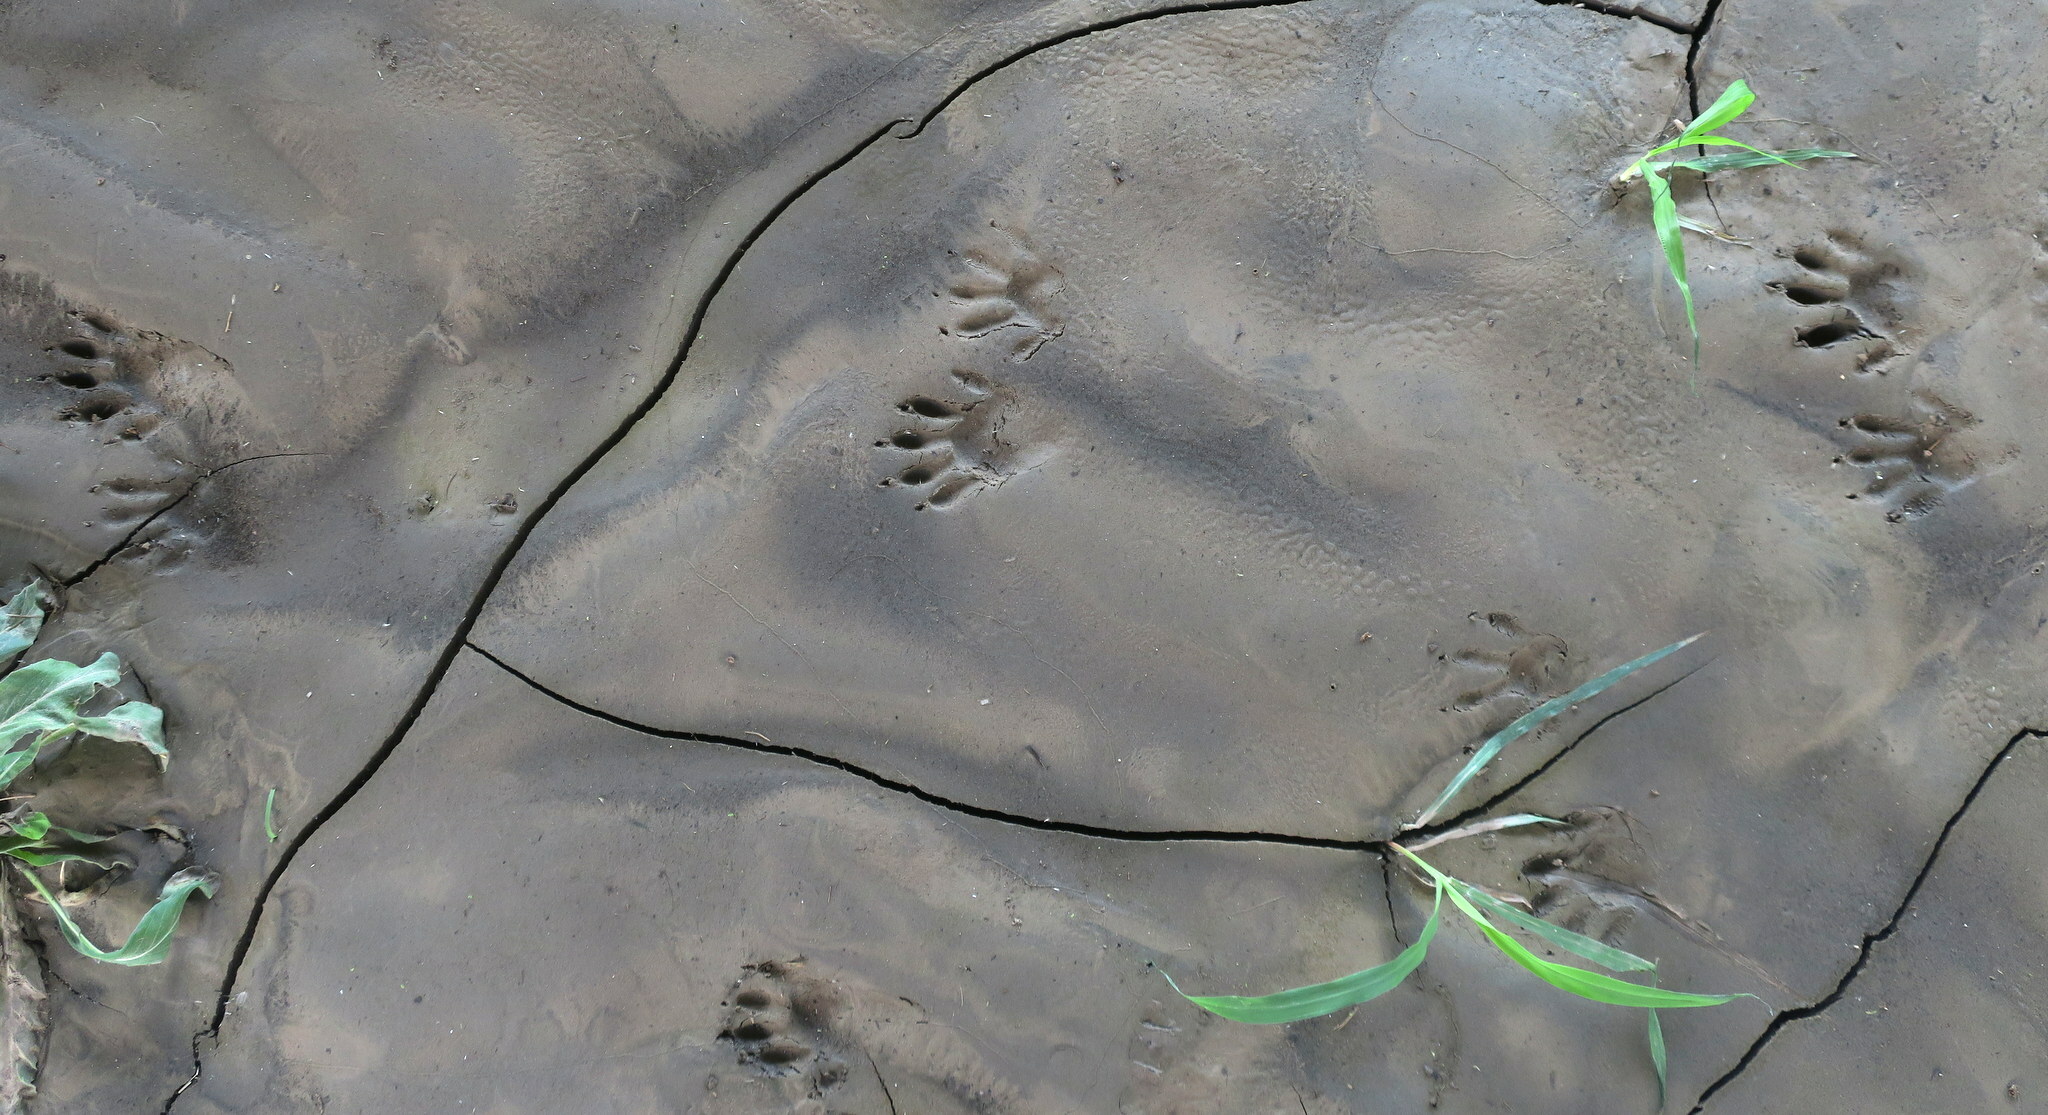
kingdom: Animalia
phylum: Chordata
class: Mammalia
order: Carnivora
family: Procyonidae
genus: Procyon
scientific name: Procyon lotor
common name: Raccoon
